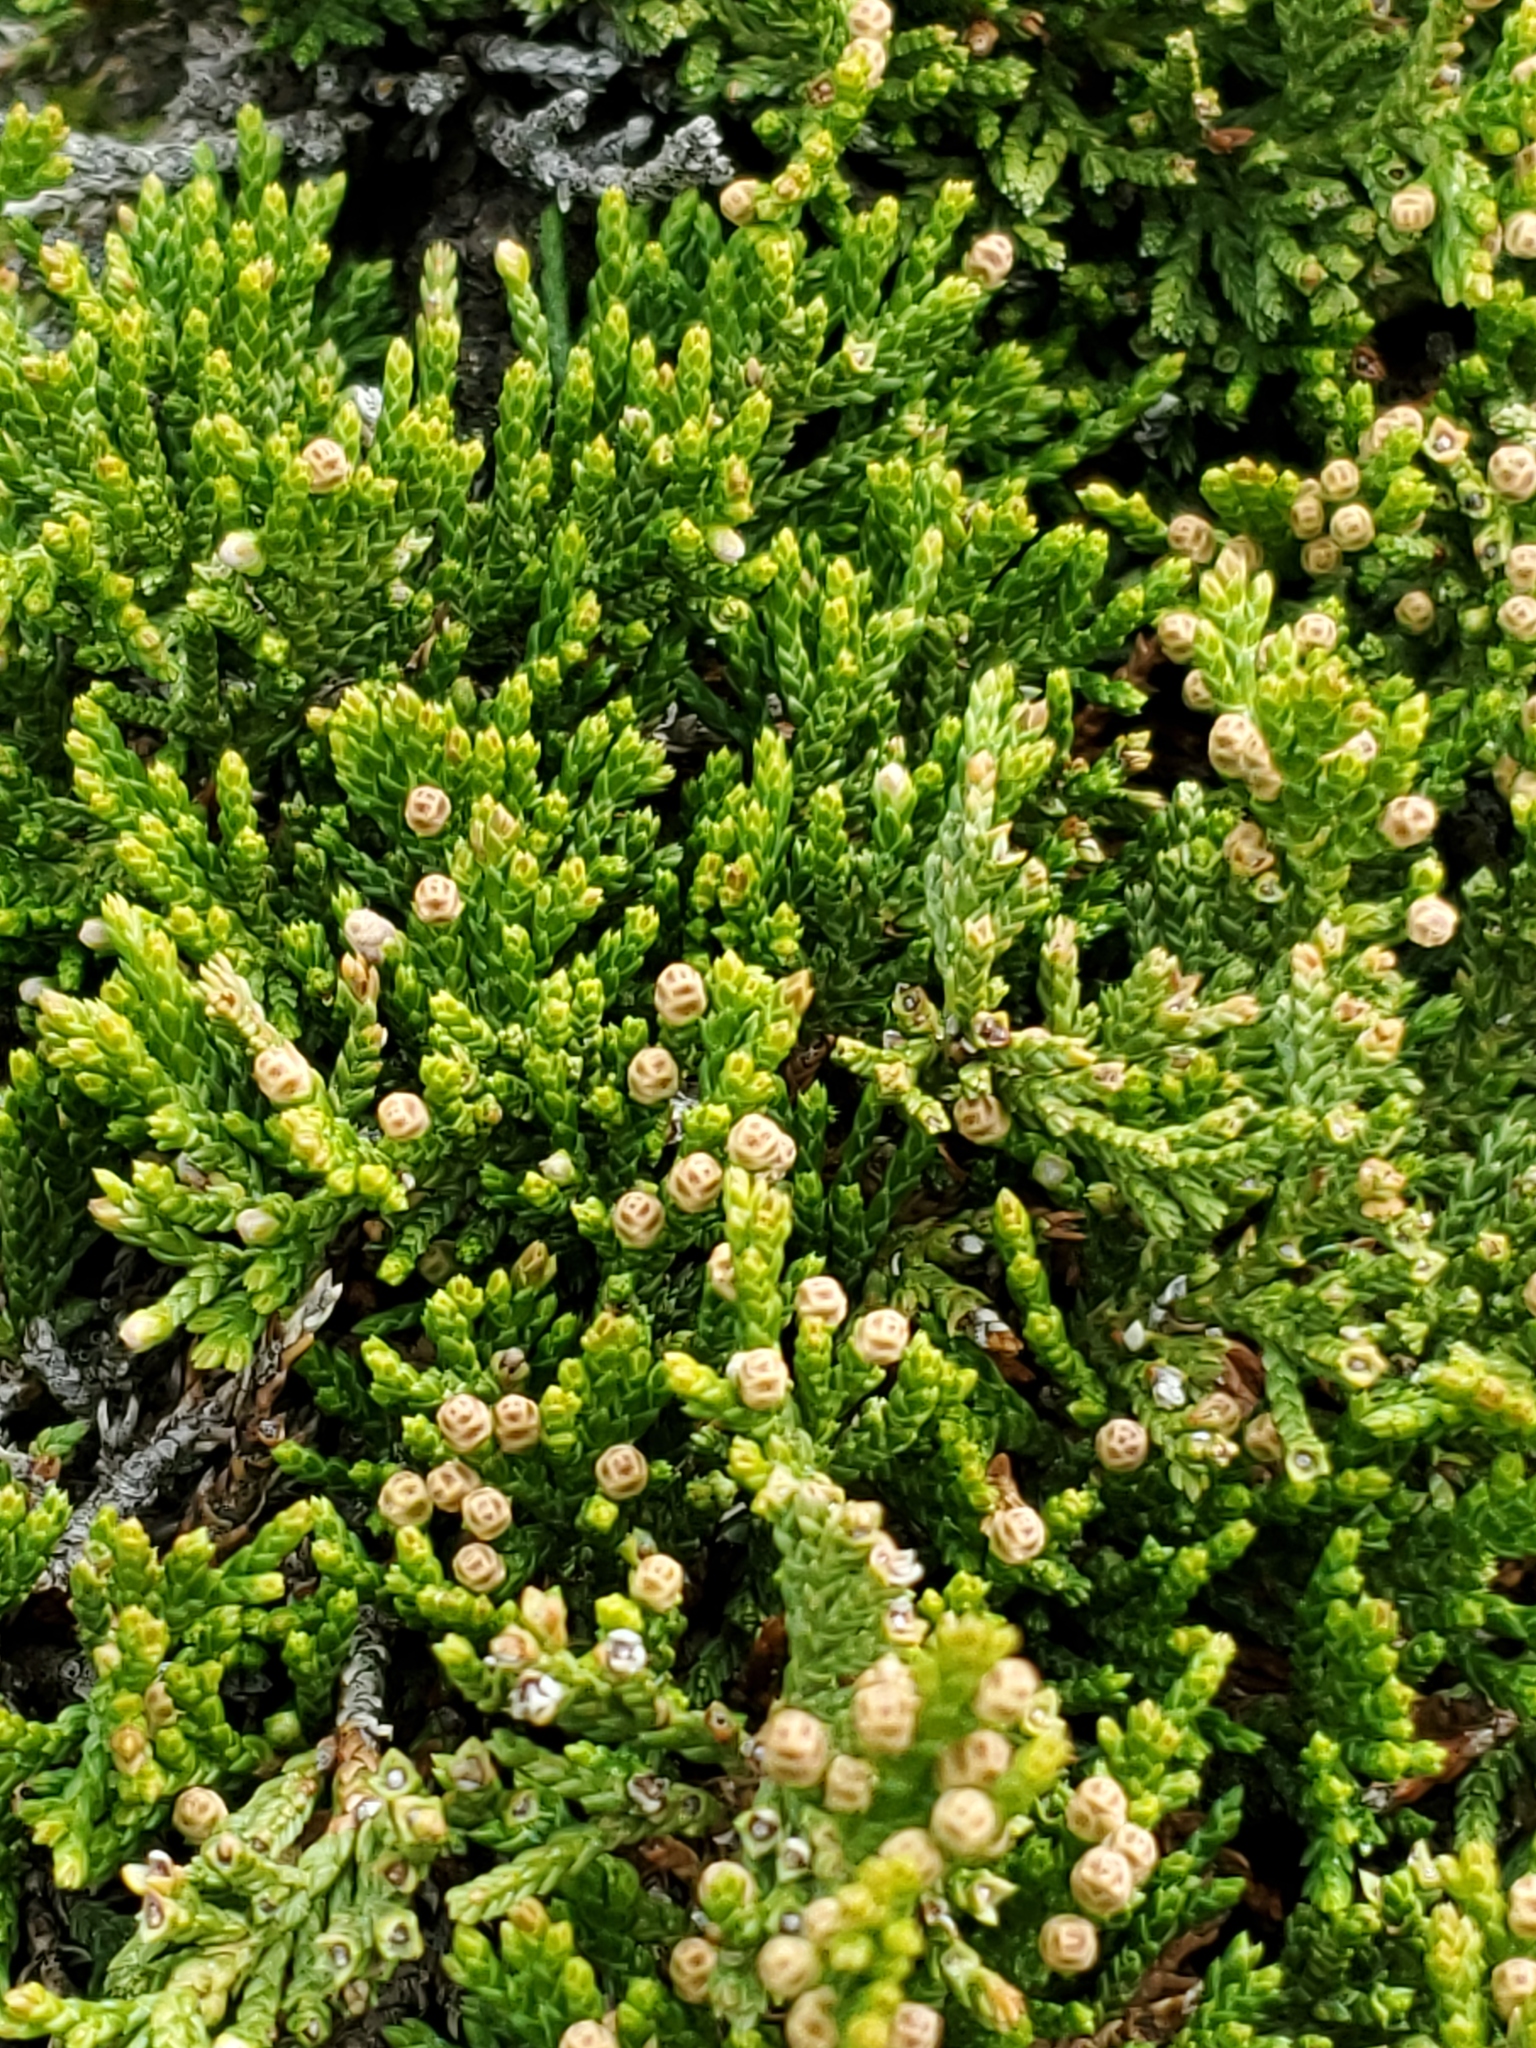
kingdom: Plantae
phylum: Tracheophyta
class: Pinopsida
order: Pinales
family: Cupressaceae
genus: Juniperus
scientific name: Juniperus horizontalis
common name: Creeping juniper
